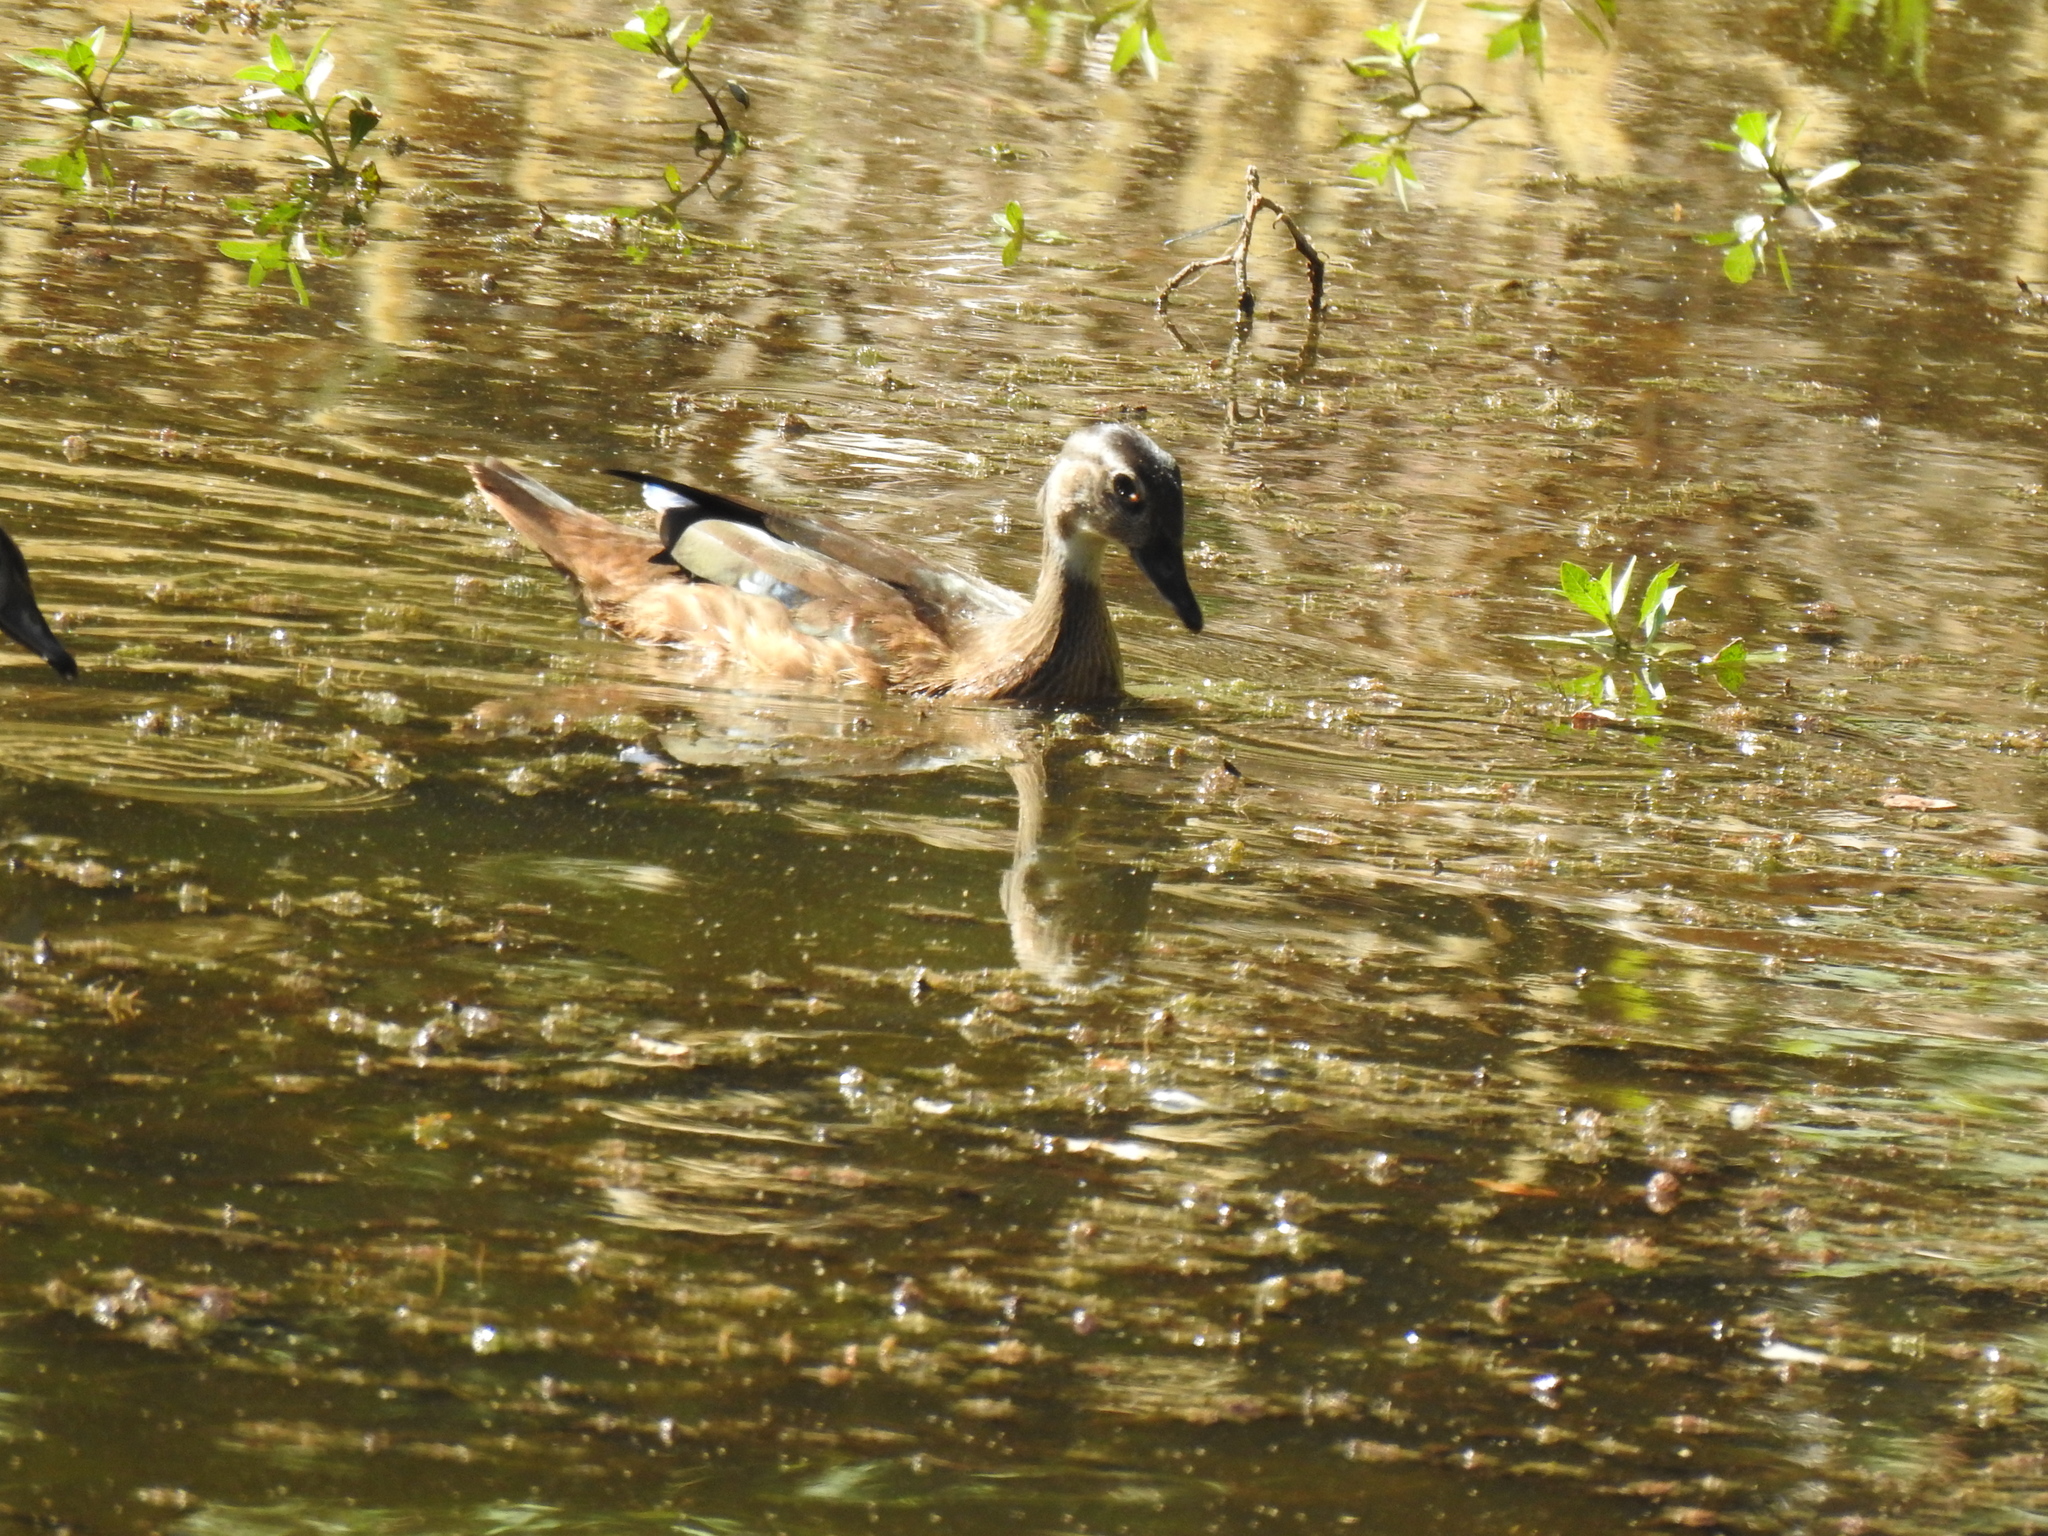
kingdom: Animalia
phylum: Chordata
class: Aves
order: Anseriformes
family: Anatidae
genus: Aix
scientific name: Aix sponsa
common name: Wood duck
